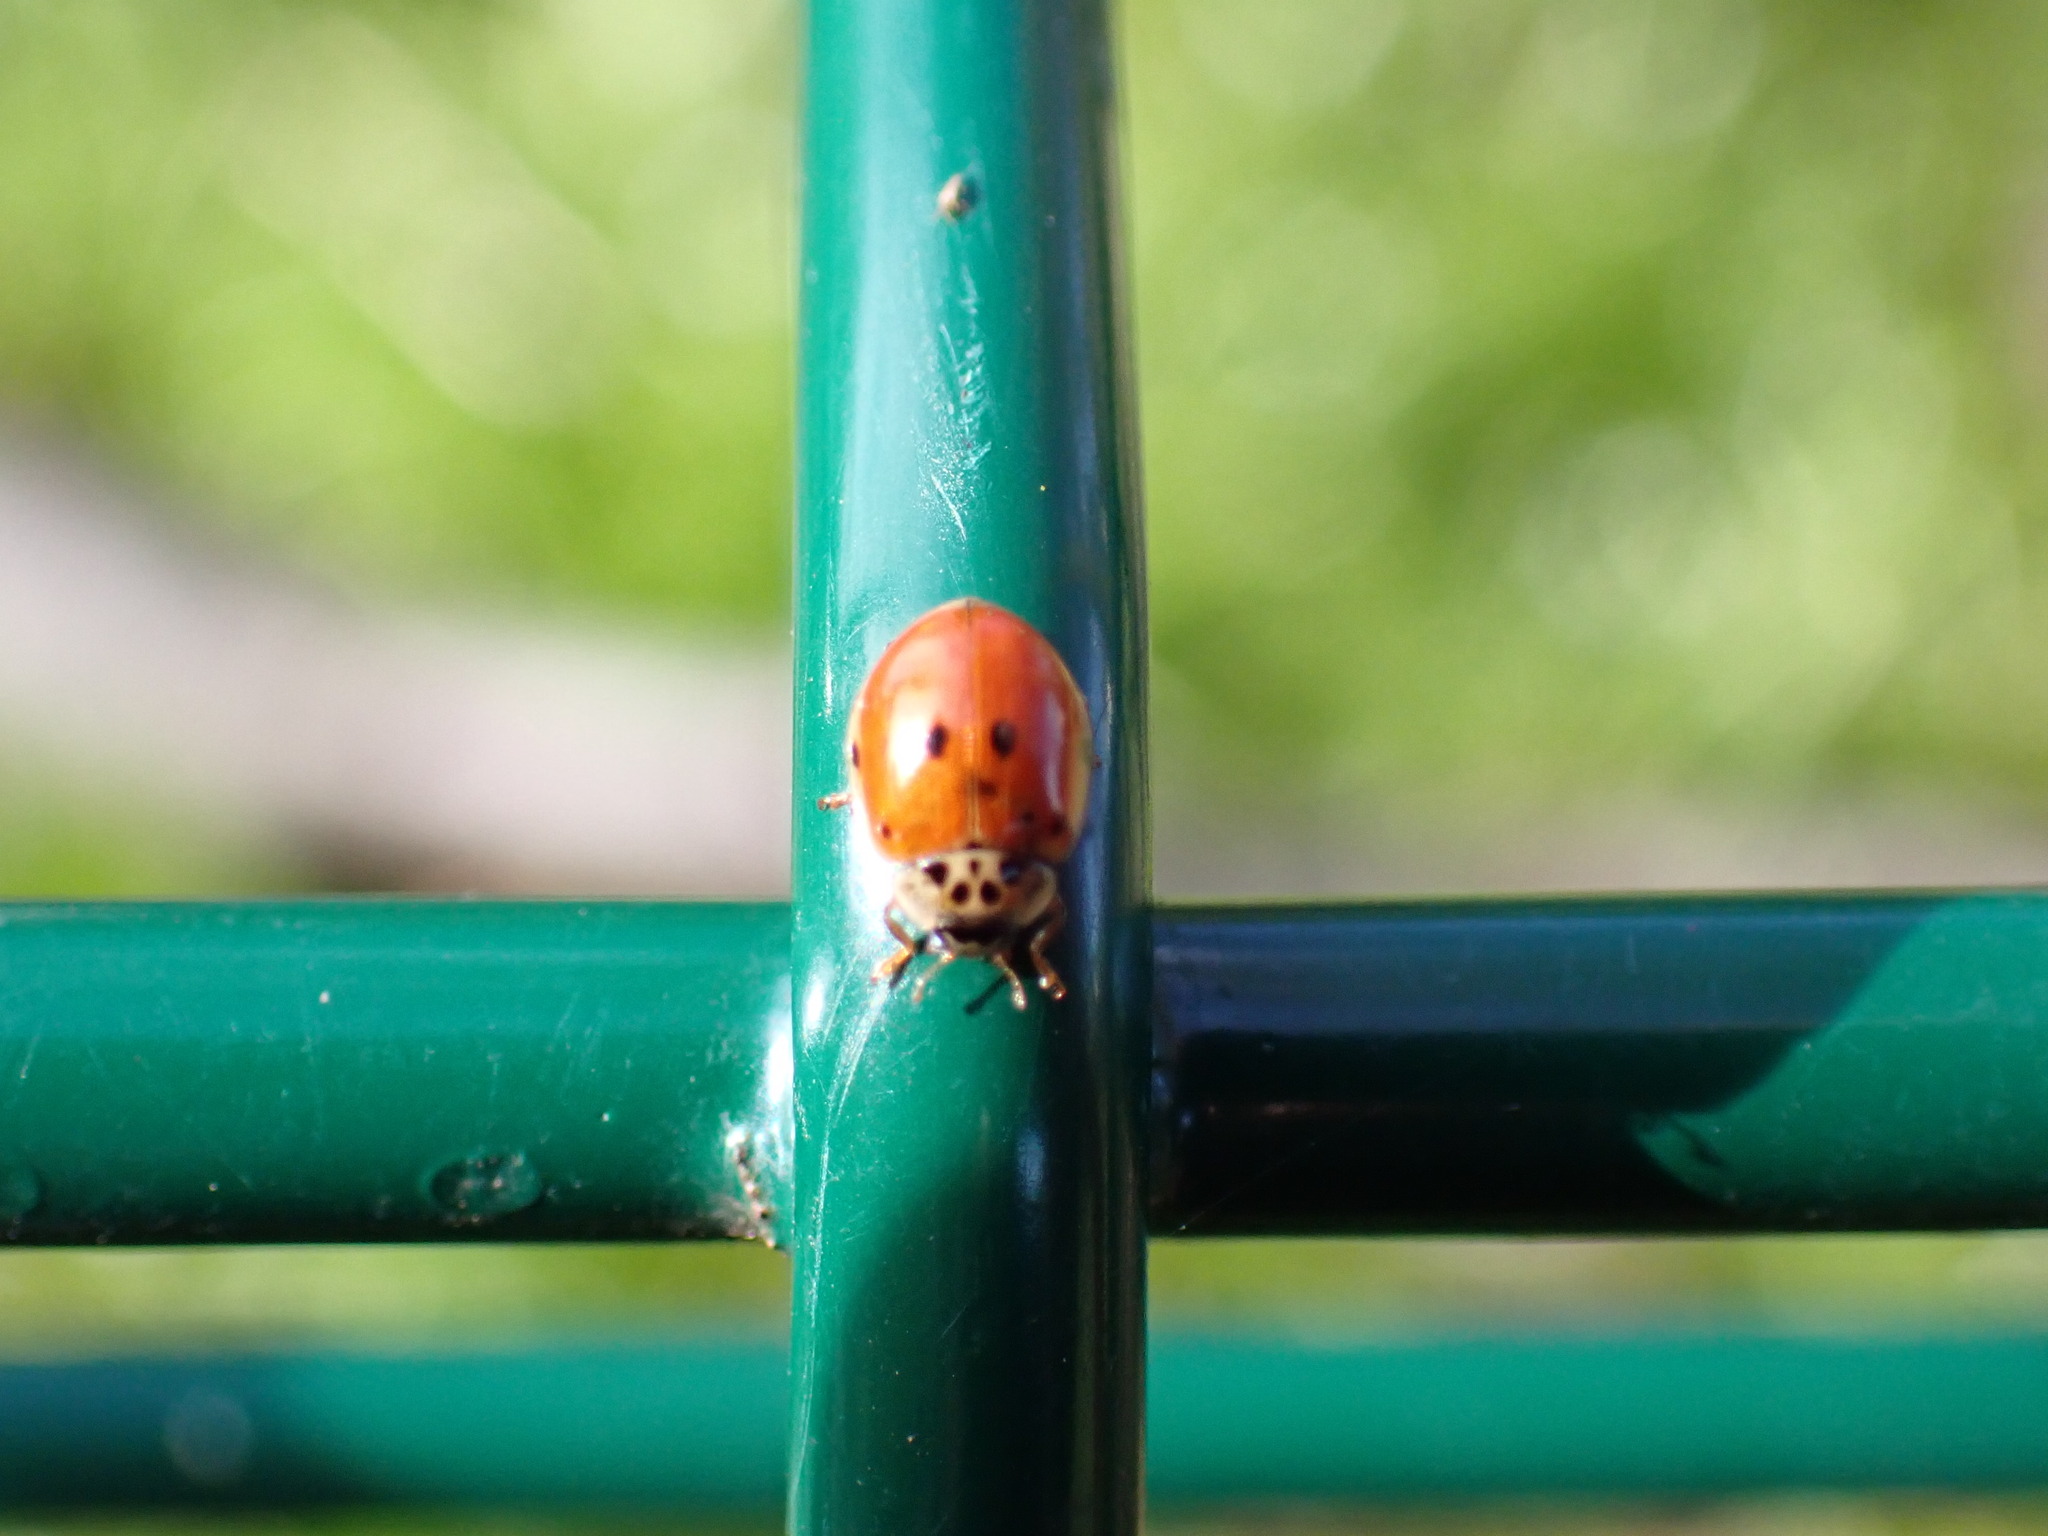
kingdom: Animalia
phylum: Arthropoda
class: Insecta
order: Coleoptera
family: Coccinellidae
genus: Adalia
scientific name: Adalia decempunctata
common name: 10-spot ladybird
